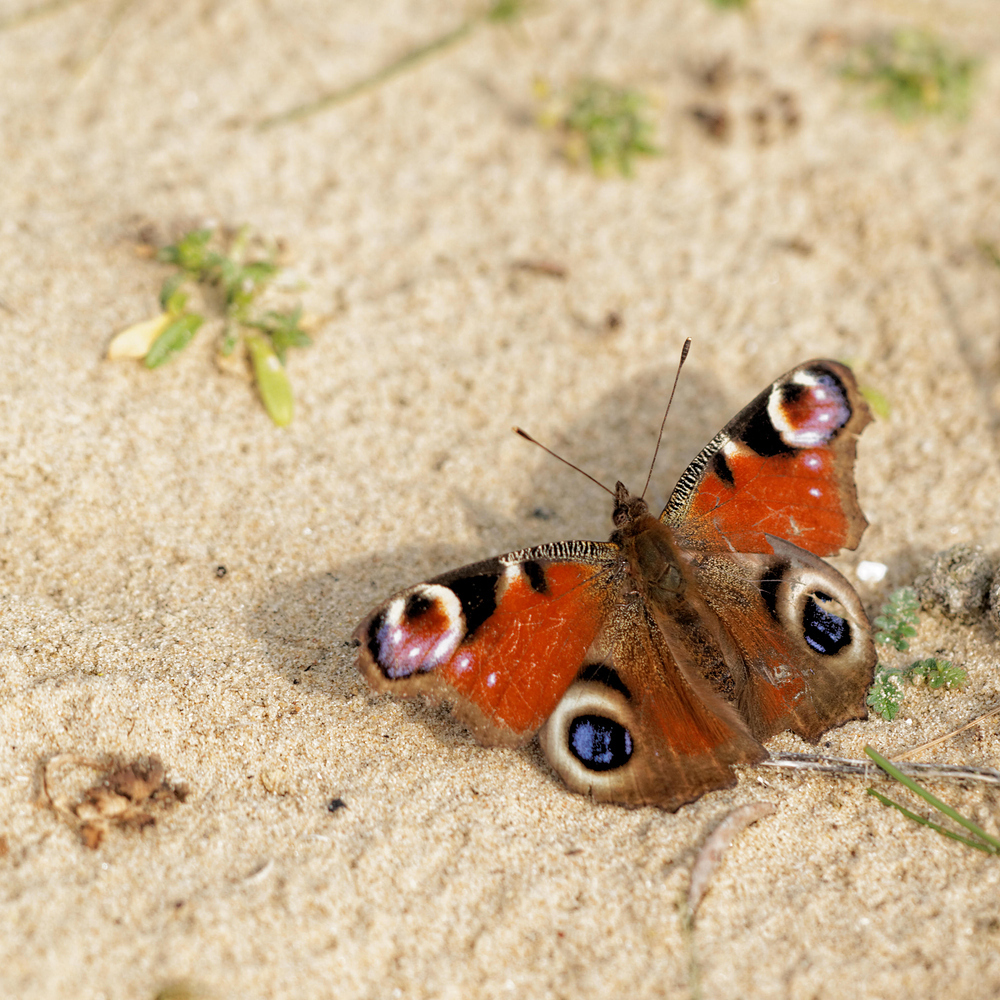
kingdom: Animalia
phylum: Arthropoda
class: Insecta
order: Lepidoptera
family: Nymphalidae
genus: Aglais
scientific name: Aglais io
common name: Peacock
